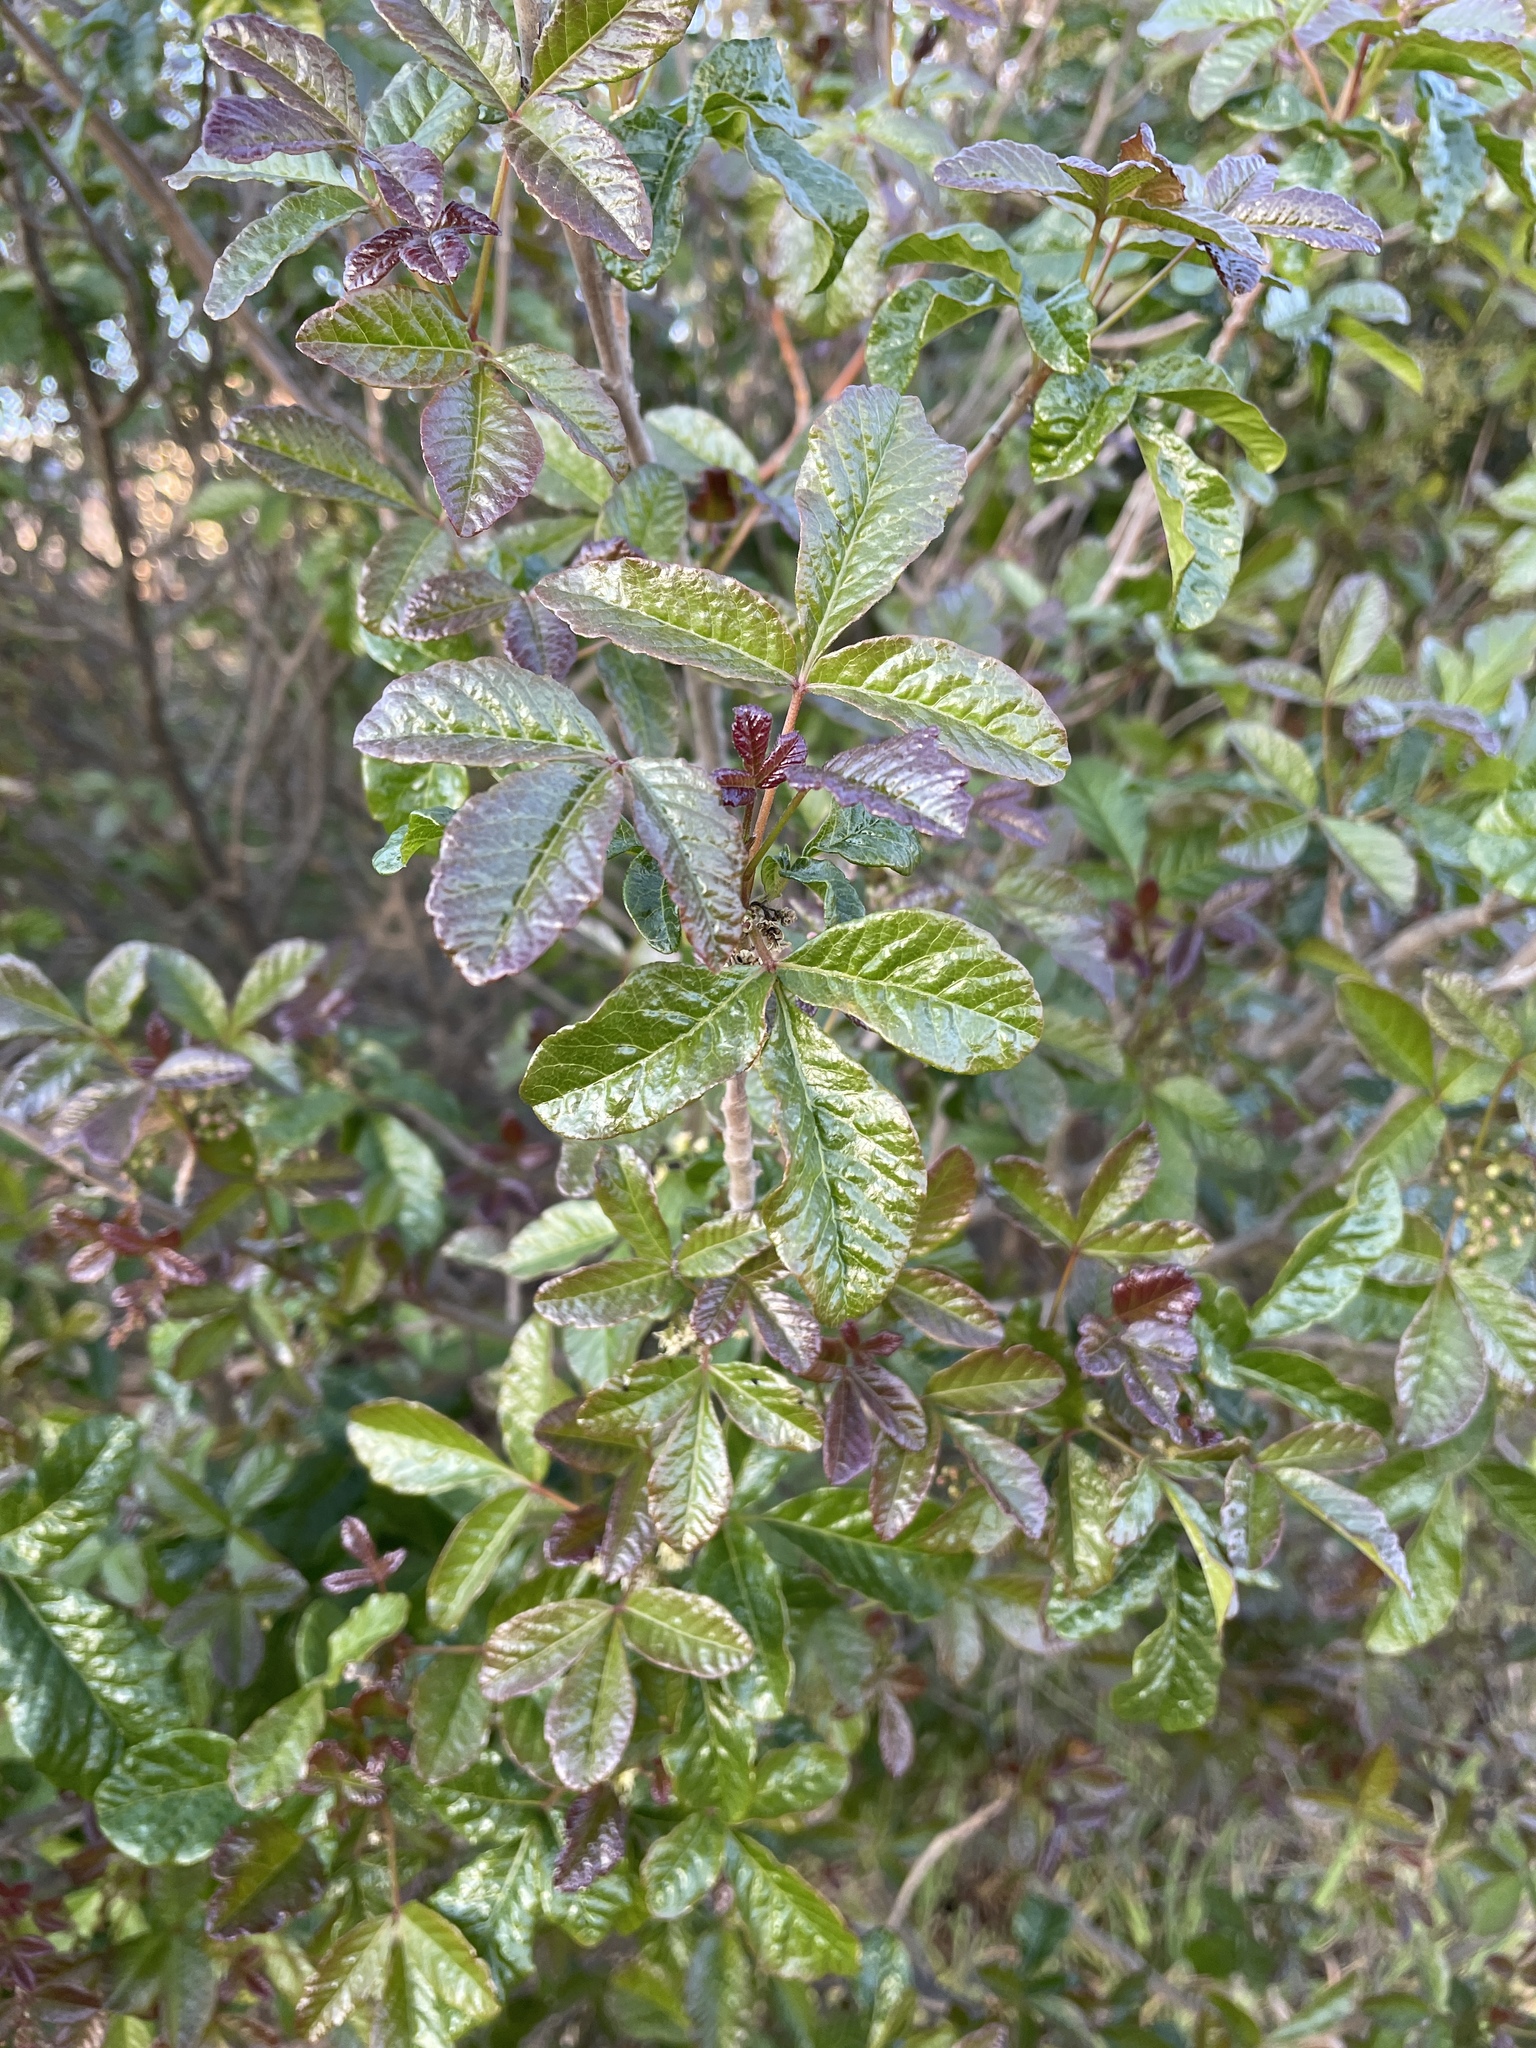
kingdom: Plantae
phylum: Tracheophyta
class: Magnoliopsida
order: Sapindales
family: Anacardiaceae
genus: Toxicodendron
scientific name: Toxicodendron diversilobum
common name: Pacific poison-oak
